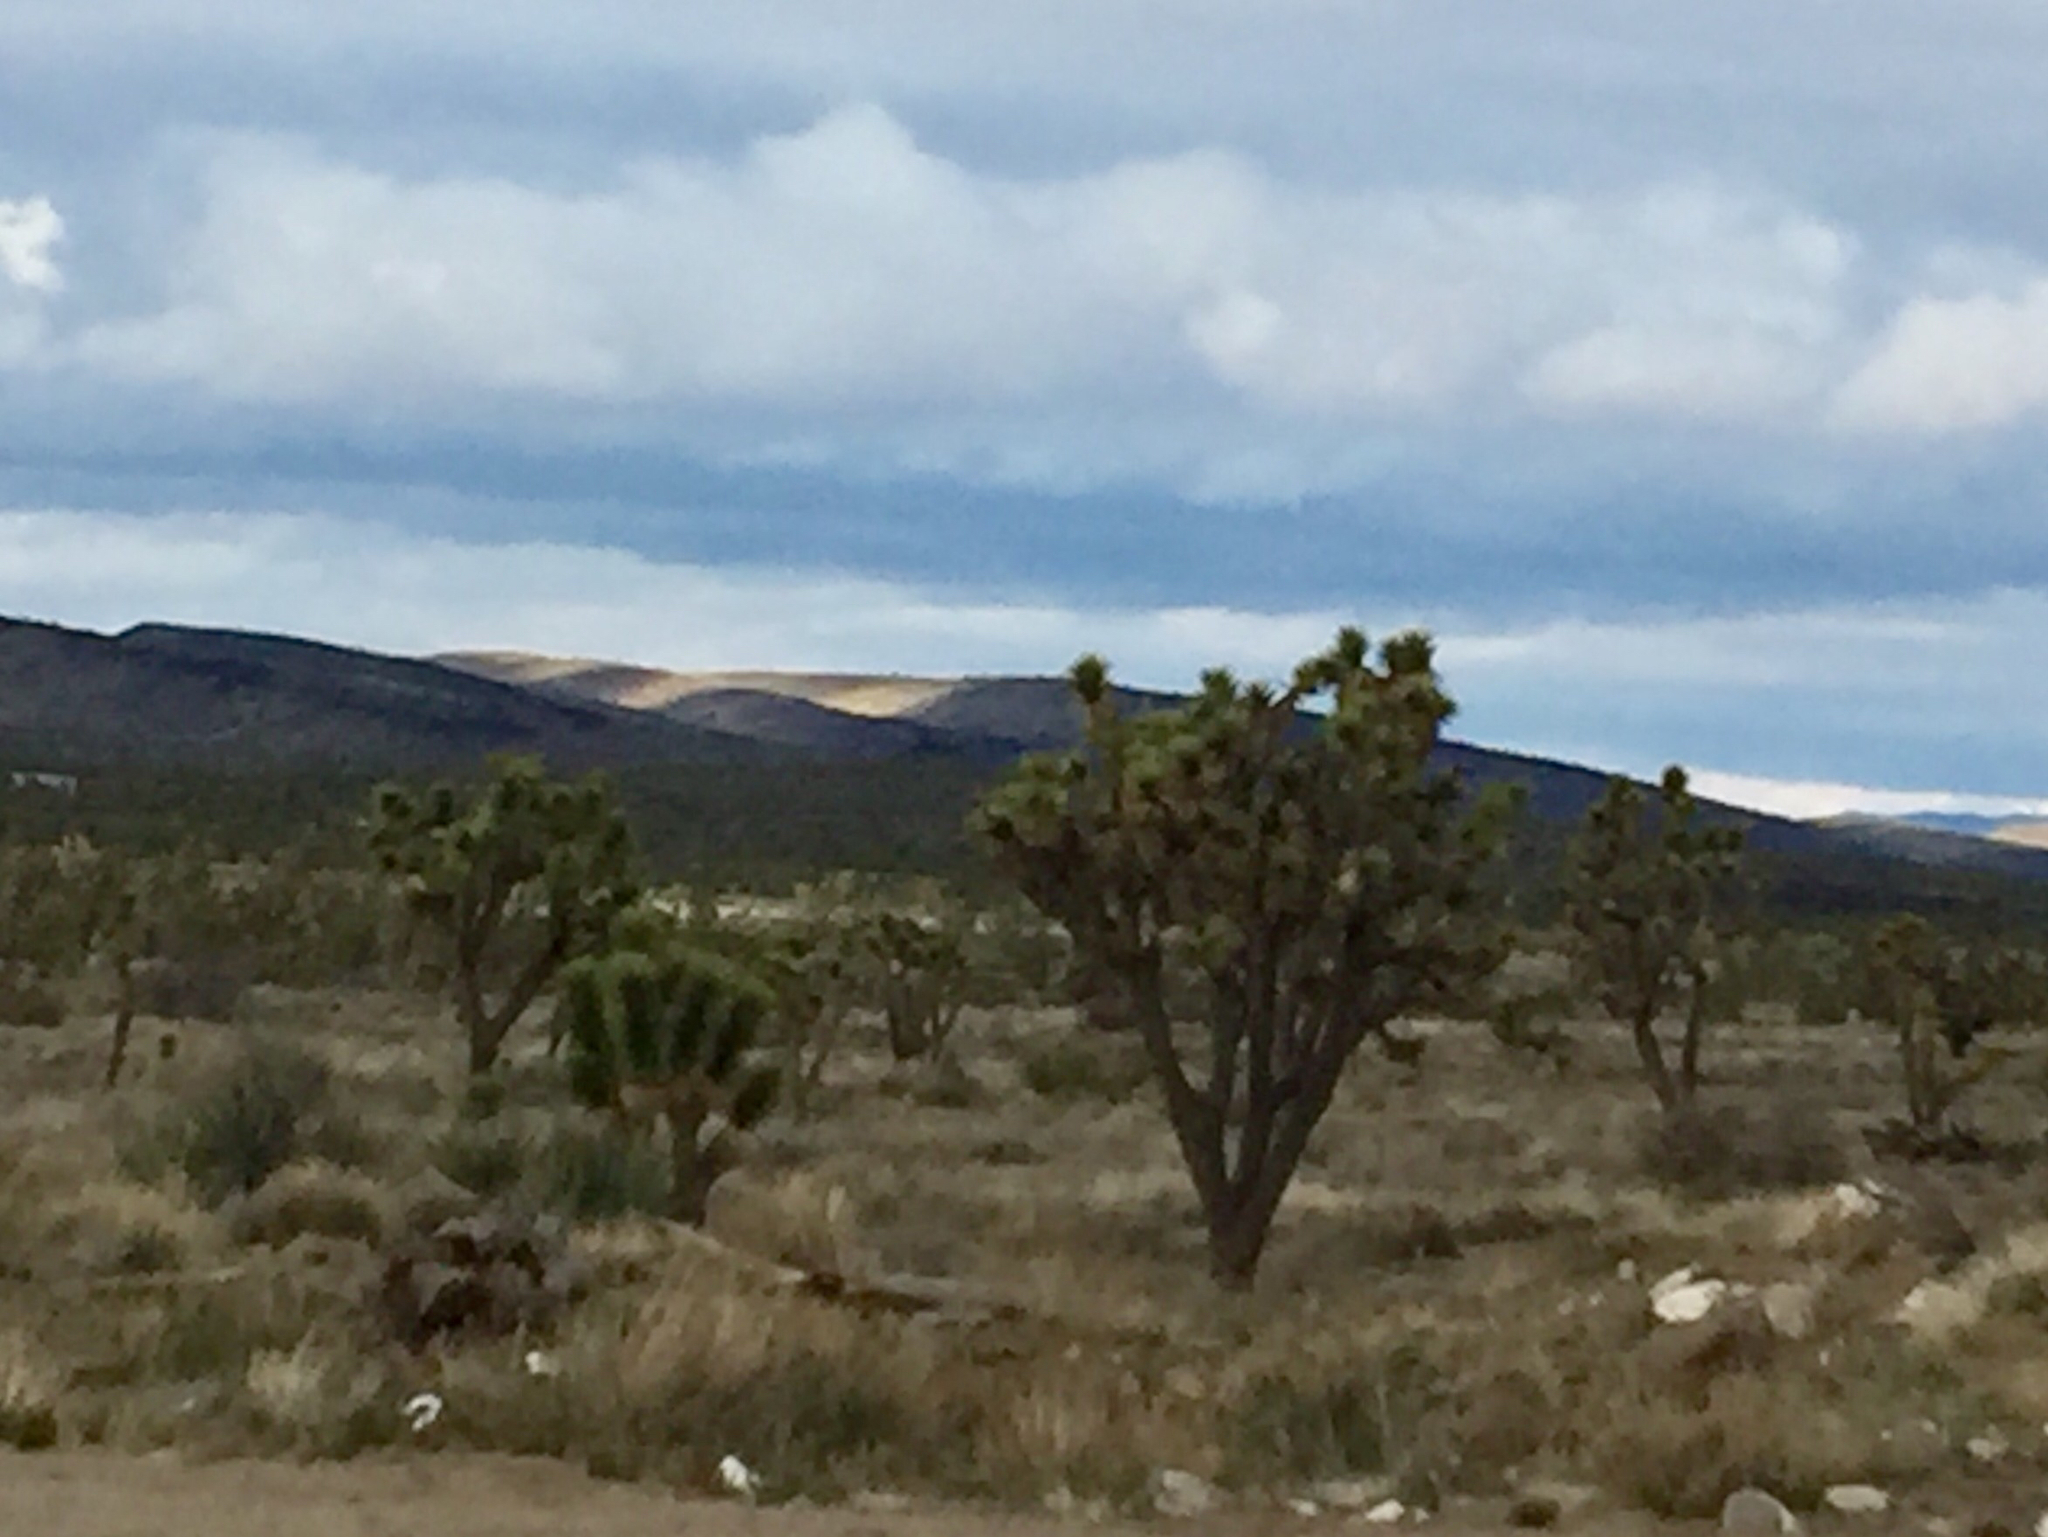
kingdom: Plantae
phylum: Tracheophyta
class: Liliopsida
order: Asparagales
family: Asparagaceae
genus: Yucca
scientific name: Yucca brevifolia
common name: Joshua tree
